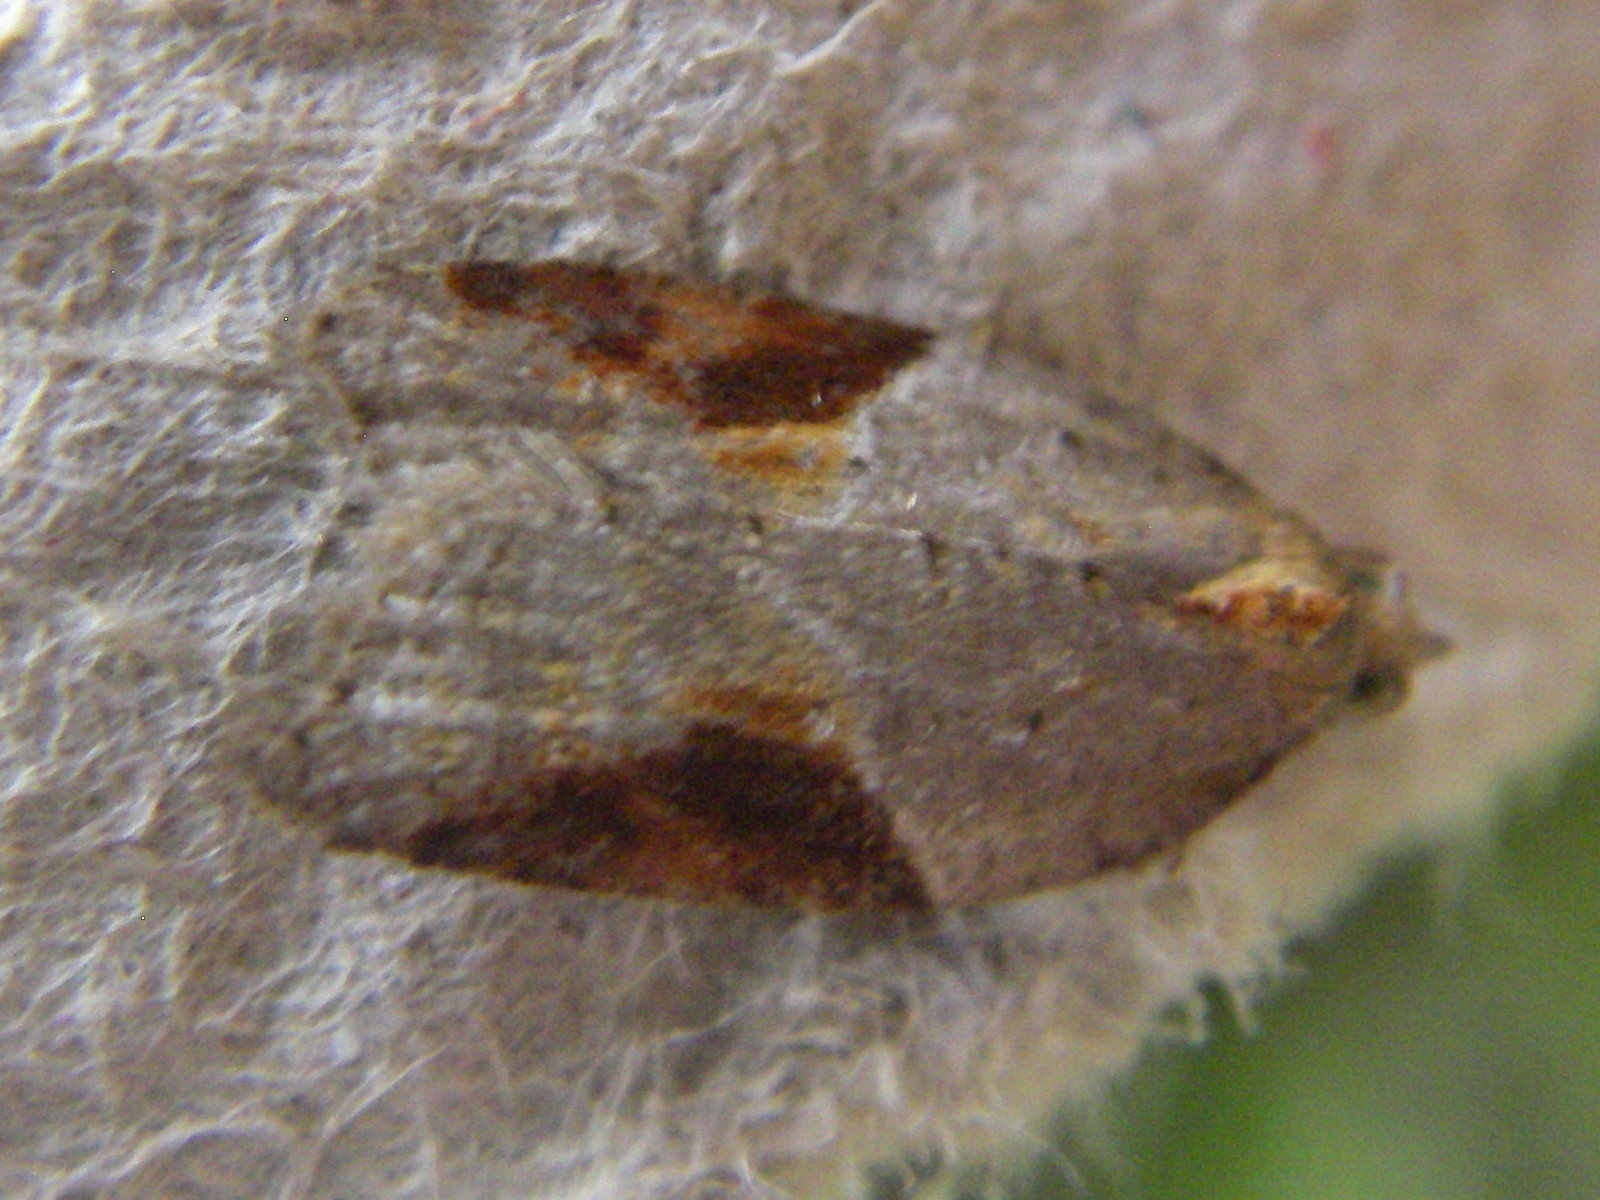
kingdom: Animalia
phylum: Arthropoda
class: Insecta
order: Lepidoptera
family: Tortricidae
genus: Acleris
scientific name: Acleris laterana
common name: Dark-triangle button
